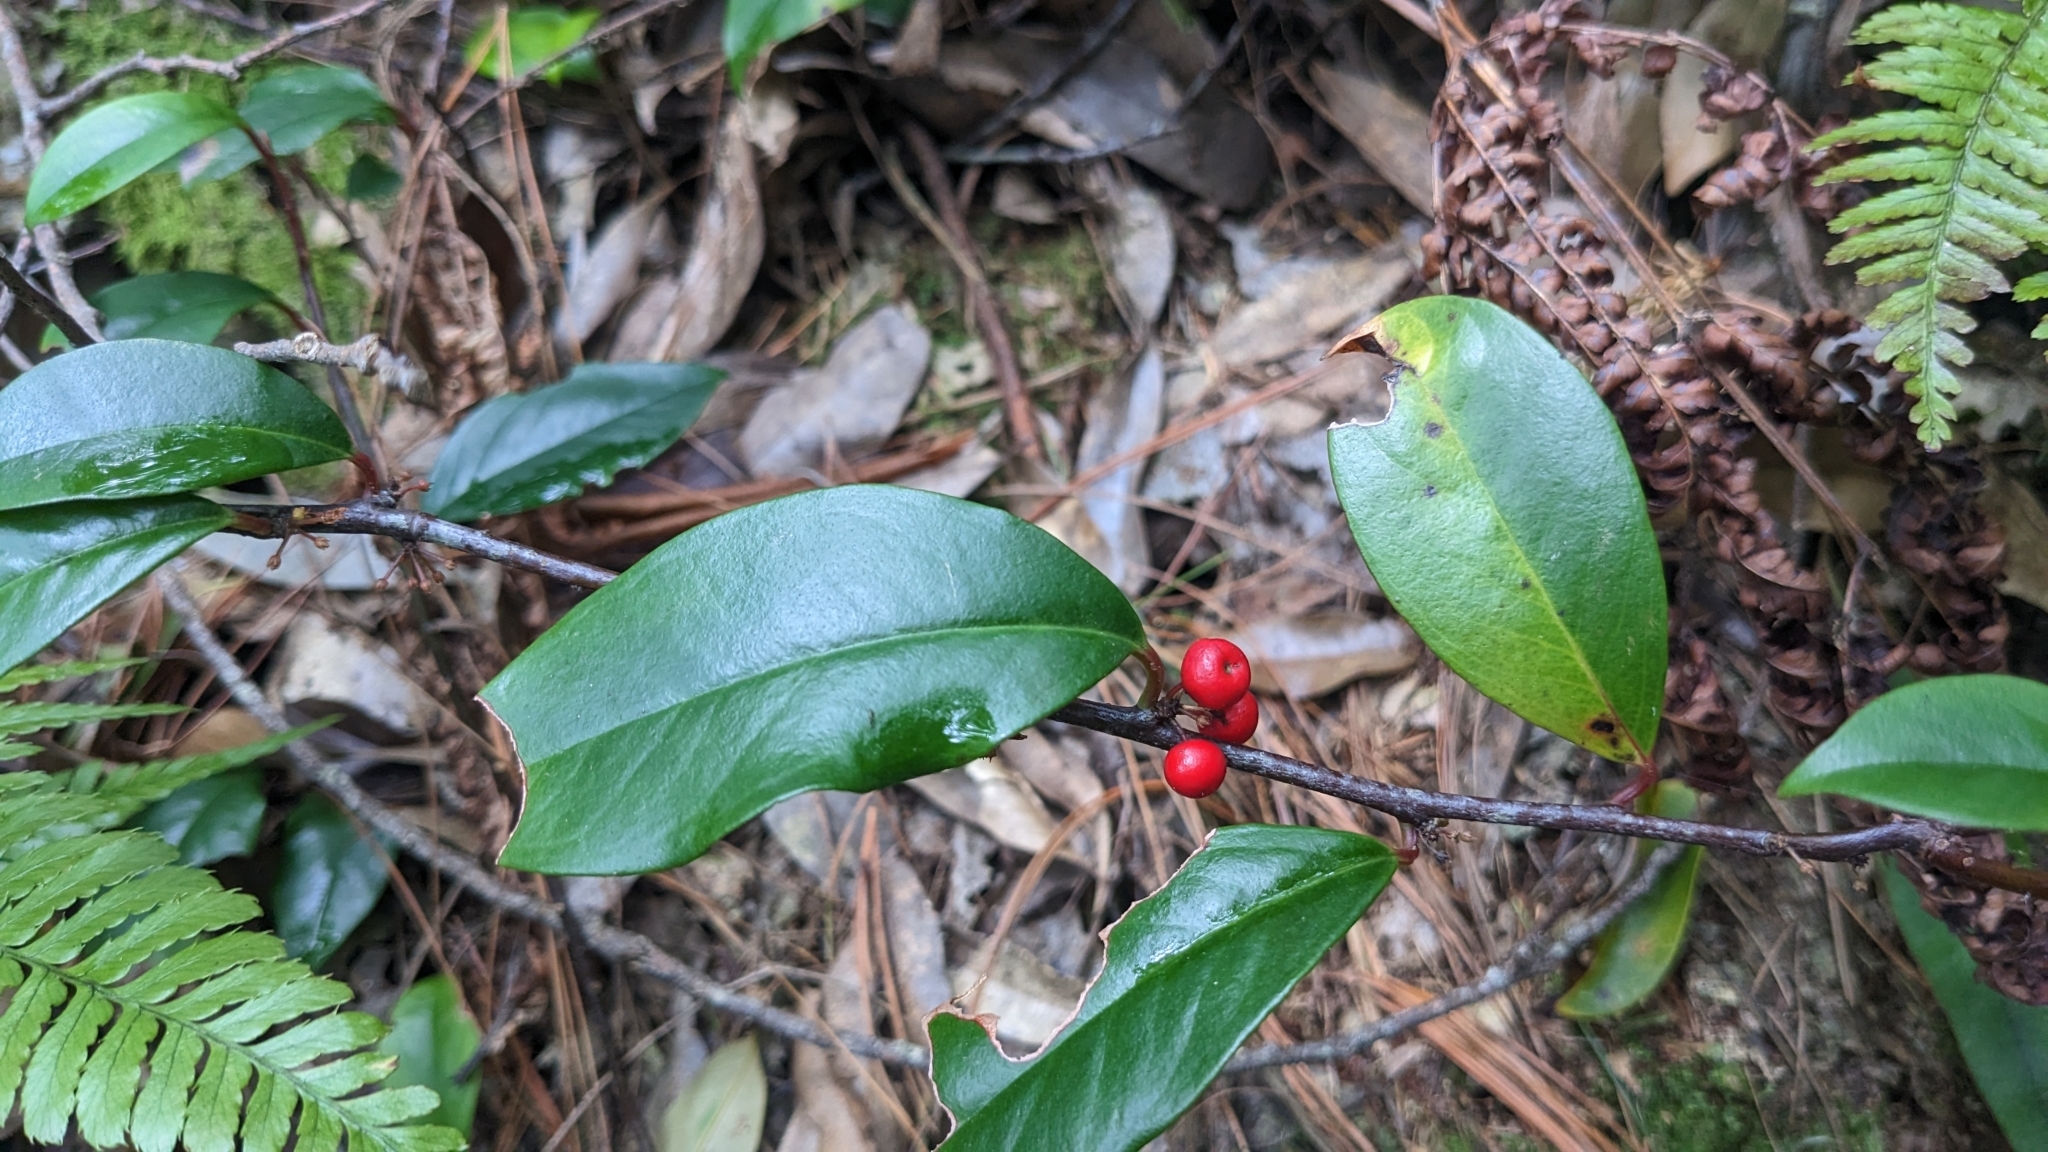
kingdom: Plantae
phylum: Tracheophyta
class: Magnoliopsida
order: Ericales
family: Primulaceae
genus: Myrsine
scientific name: Myrsine stolonifera
